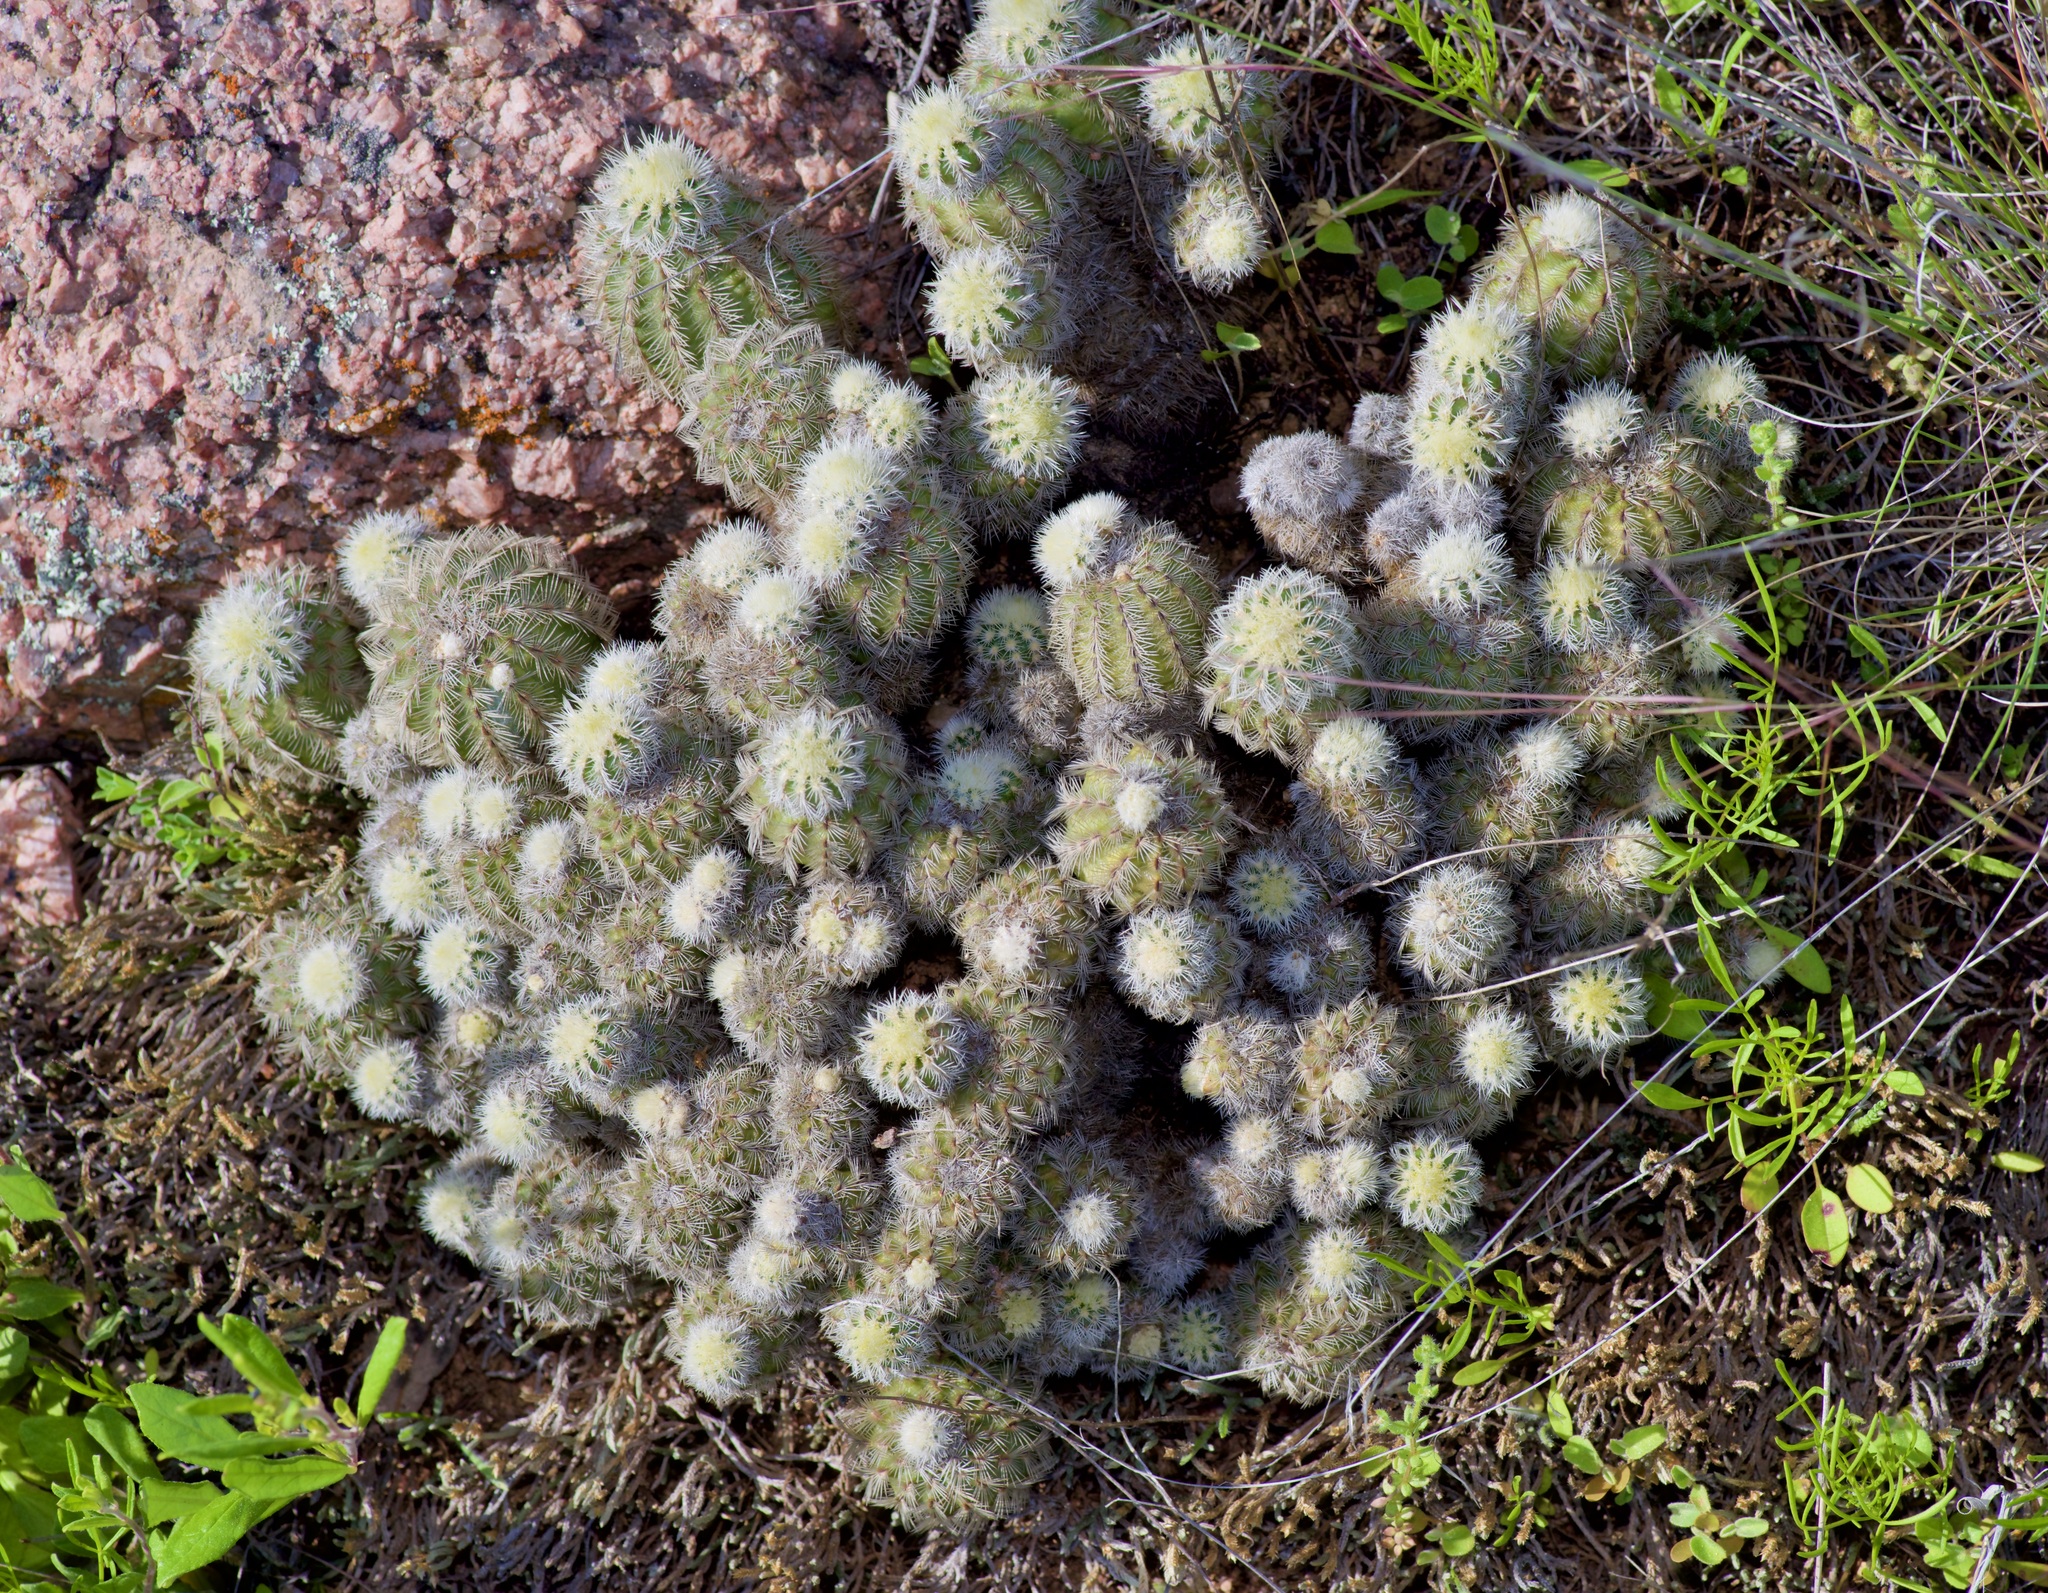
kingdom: Plantae
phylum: Tracheophyta
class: Magnoliopsida
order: Caryophyllales
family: Cactaceae
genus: Echinocereus
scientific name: Echinocereus reichenbachii
